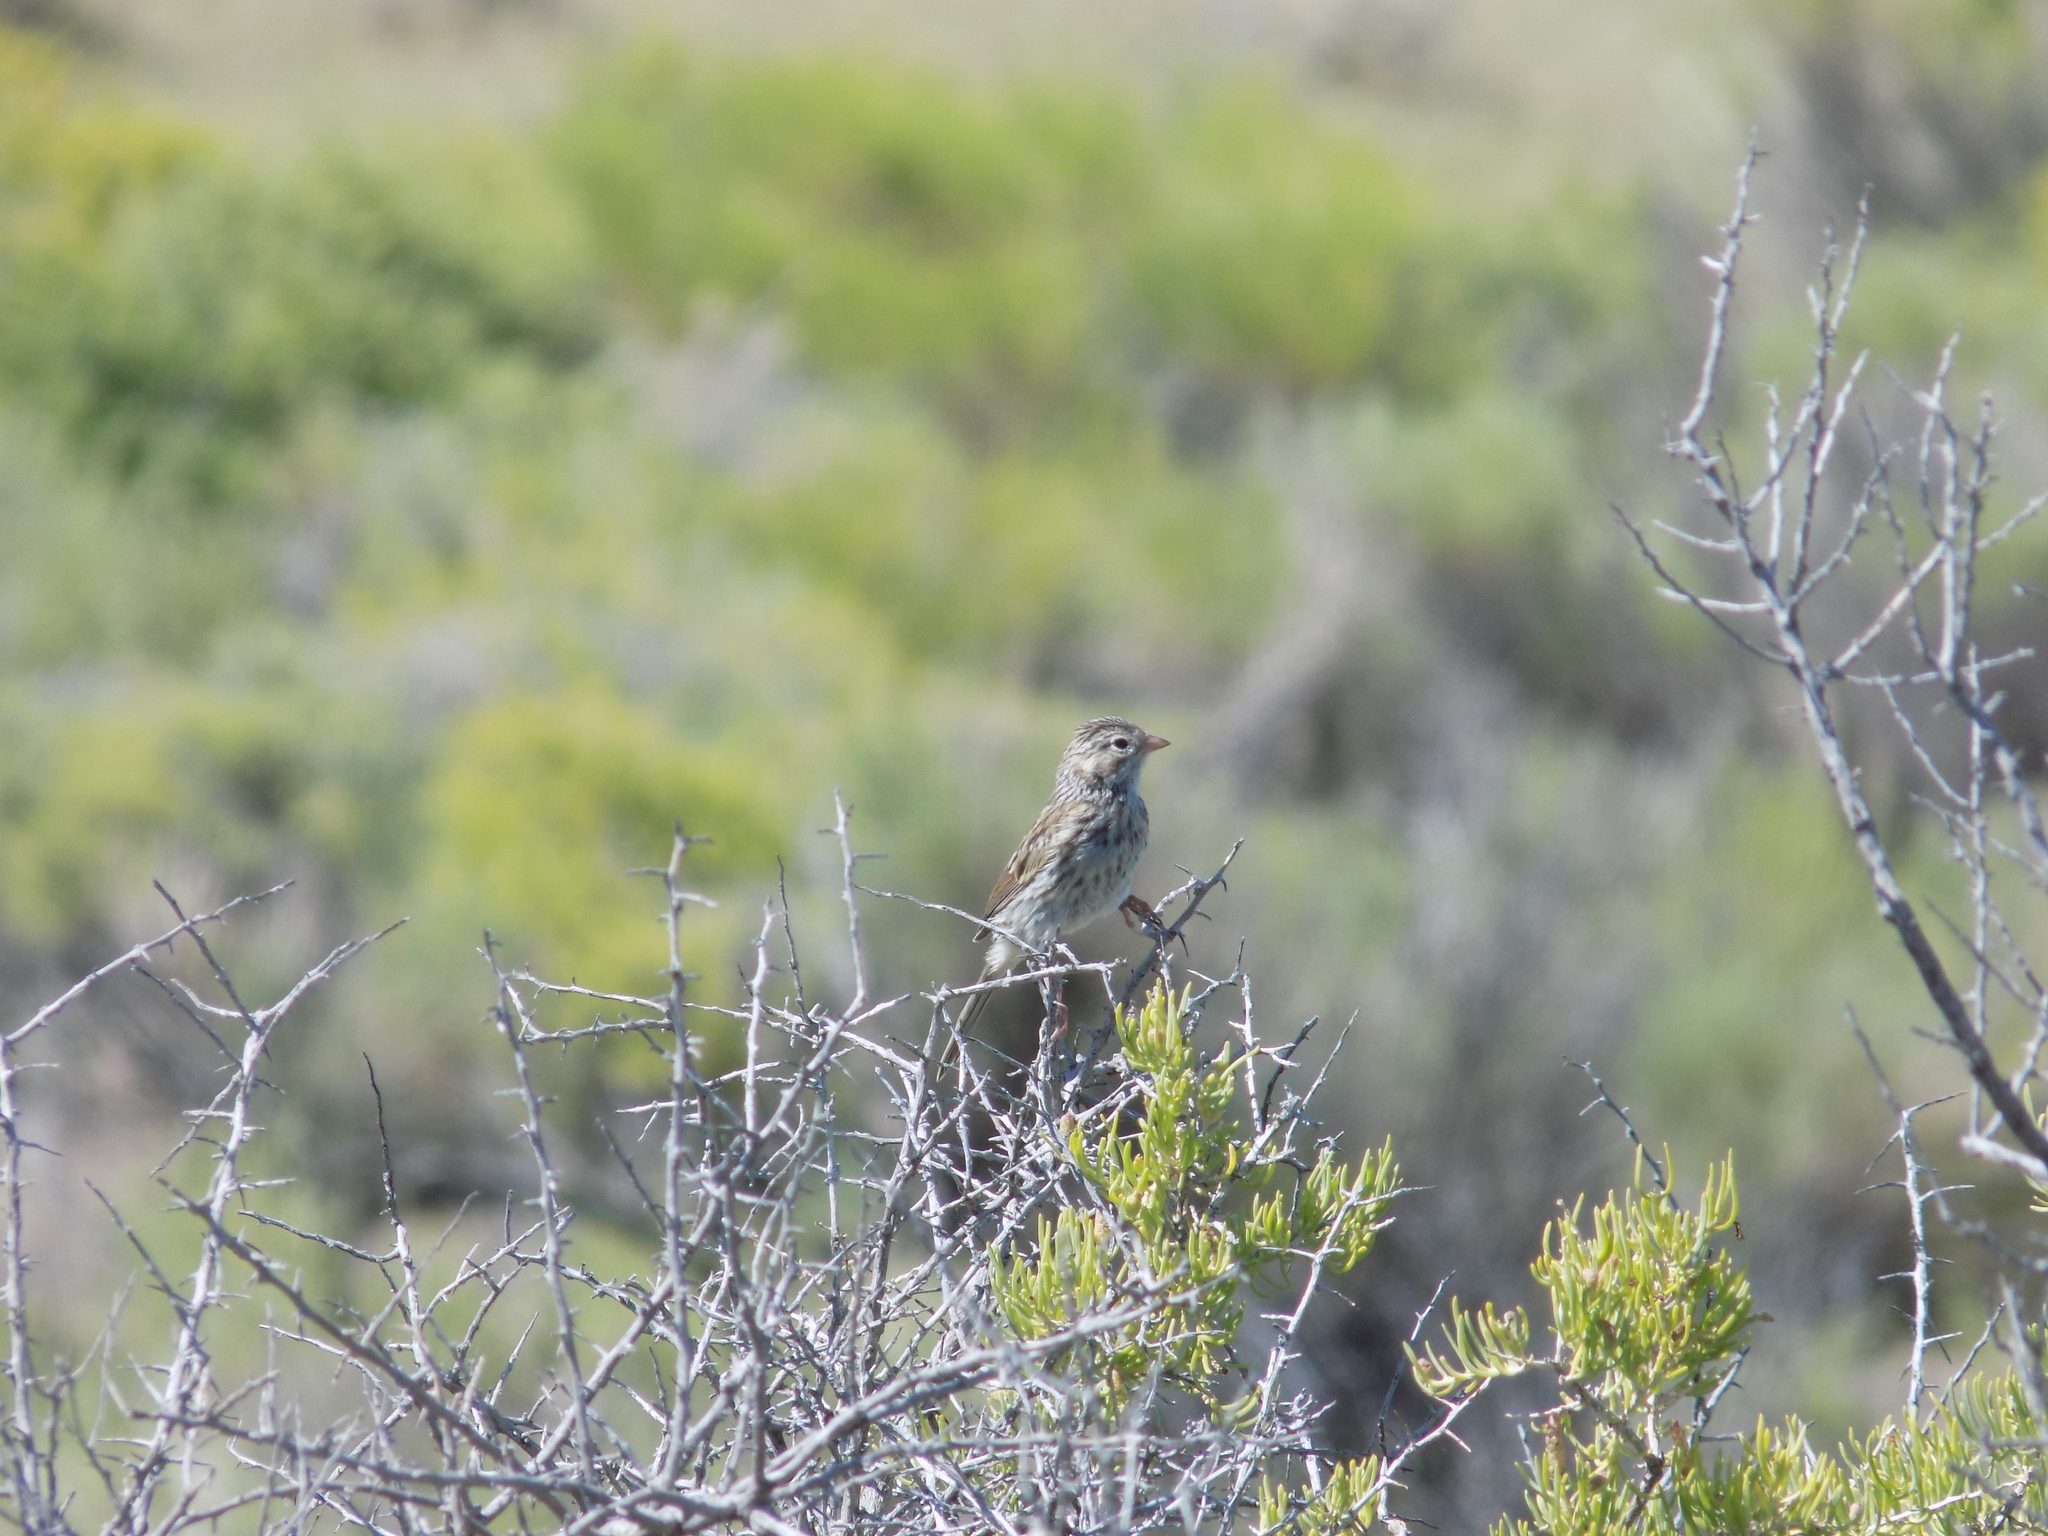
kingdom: Animalia
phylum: Chordata
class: Aves
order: Passeriformes
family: Passerellidae
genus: Pooecetes
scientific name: Pooecetes gramineus
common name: Vesper sparrow
